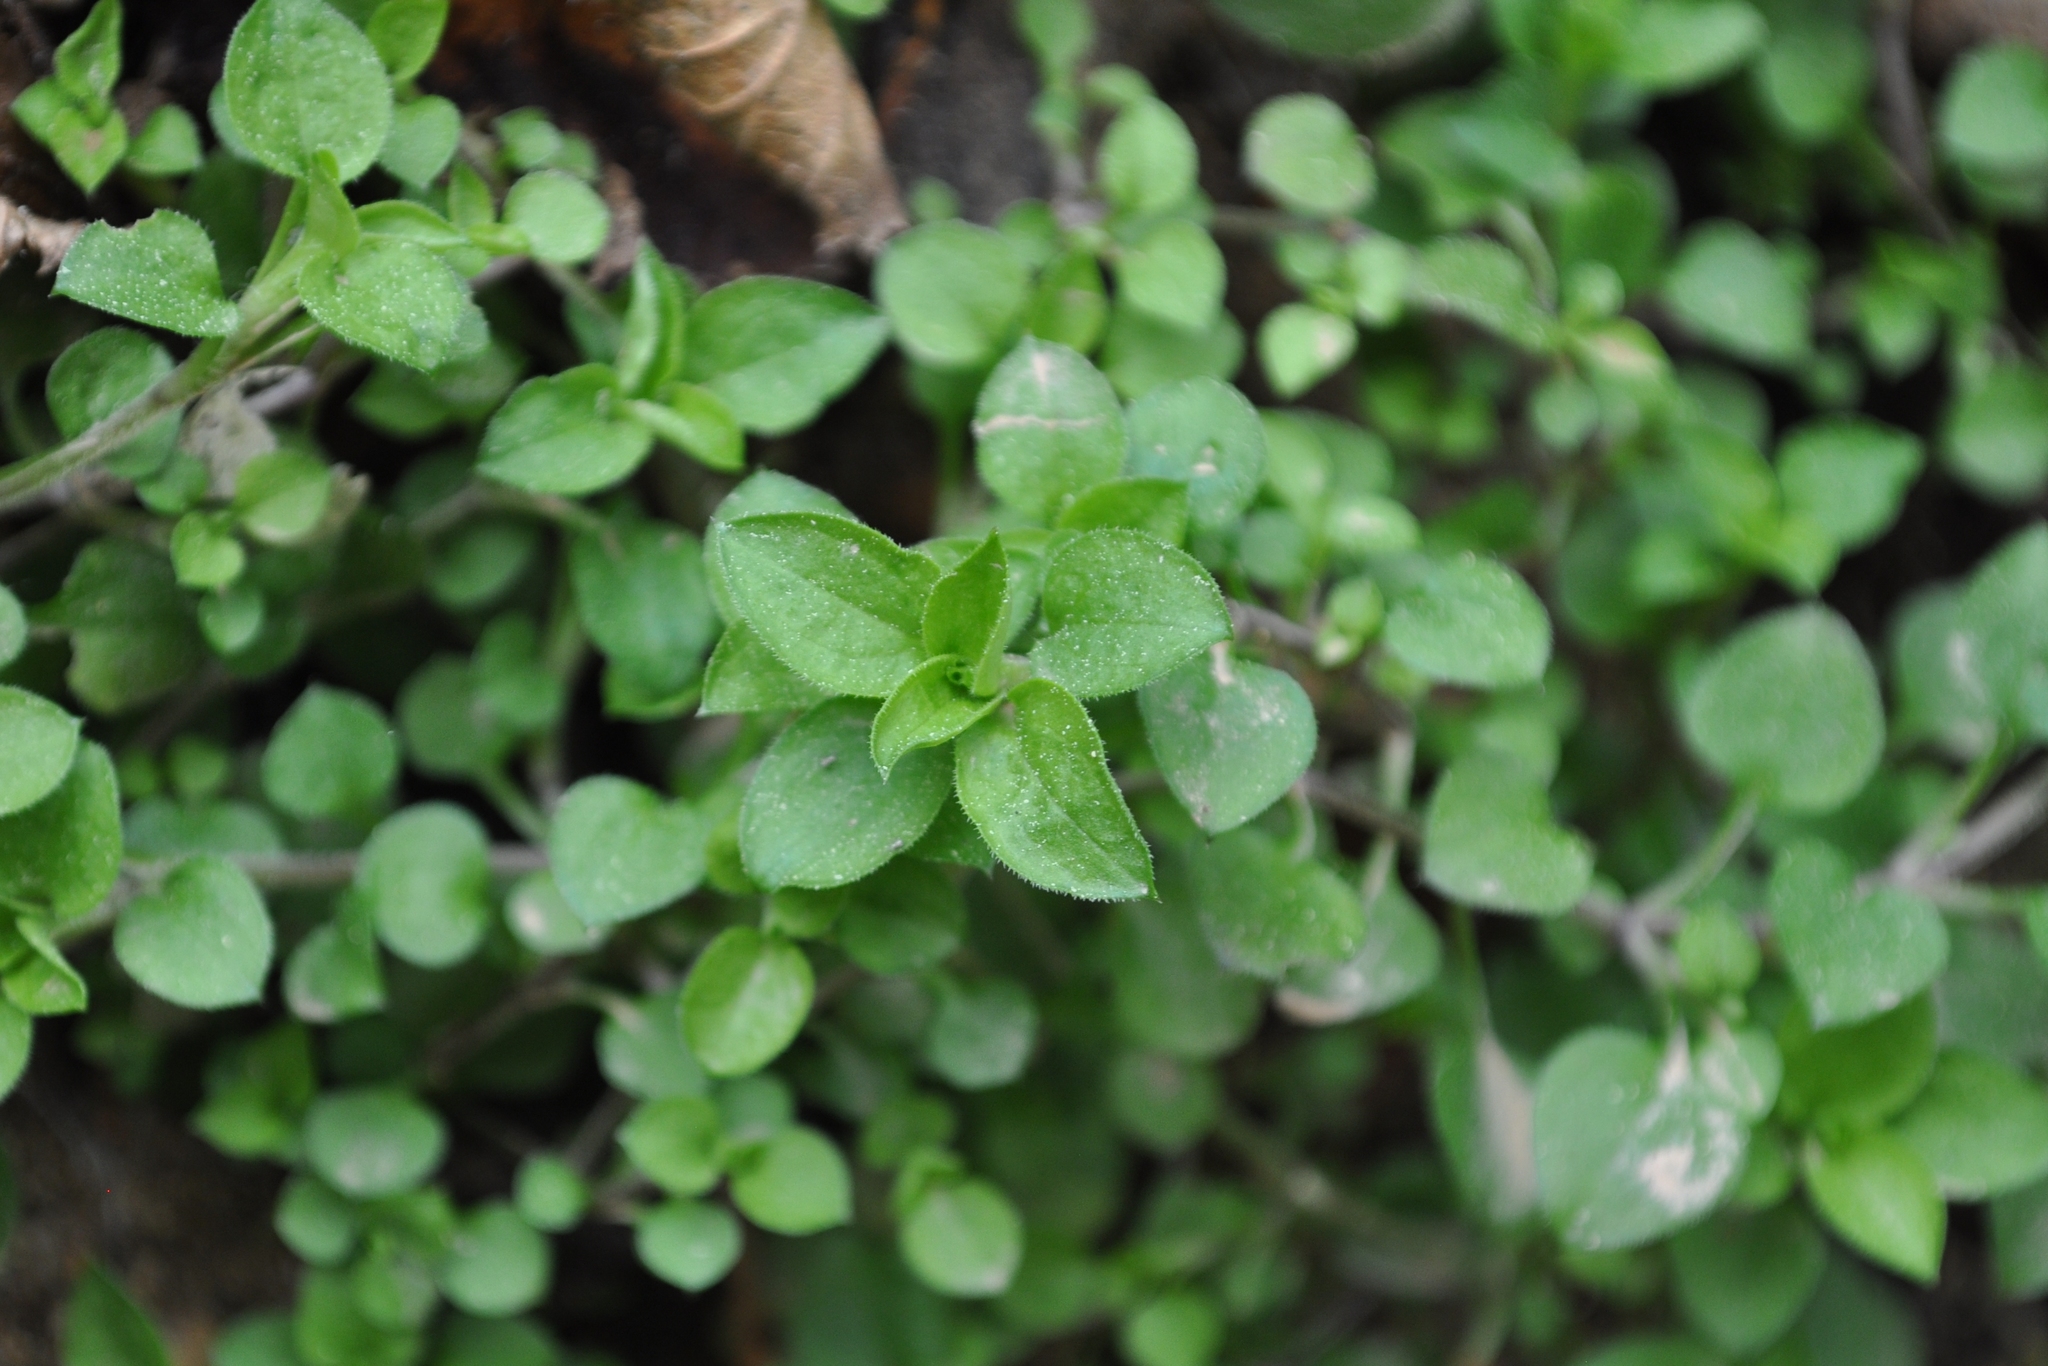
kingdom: Plantae
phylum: Tracheophyta
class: Magnoliopsida
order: Caryophyllales
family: Caryophyllaceae
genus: Moehringia
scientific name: Moehringia trinervia
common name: Three-nerved sandwort
